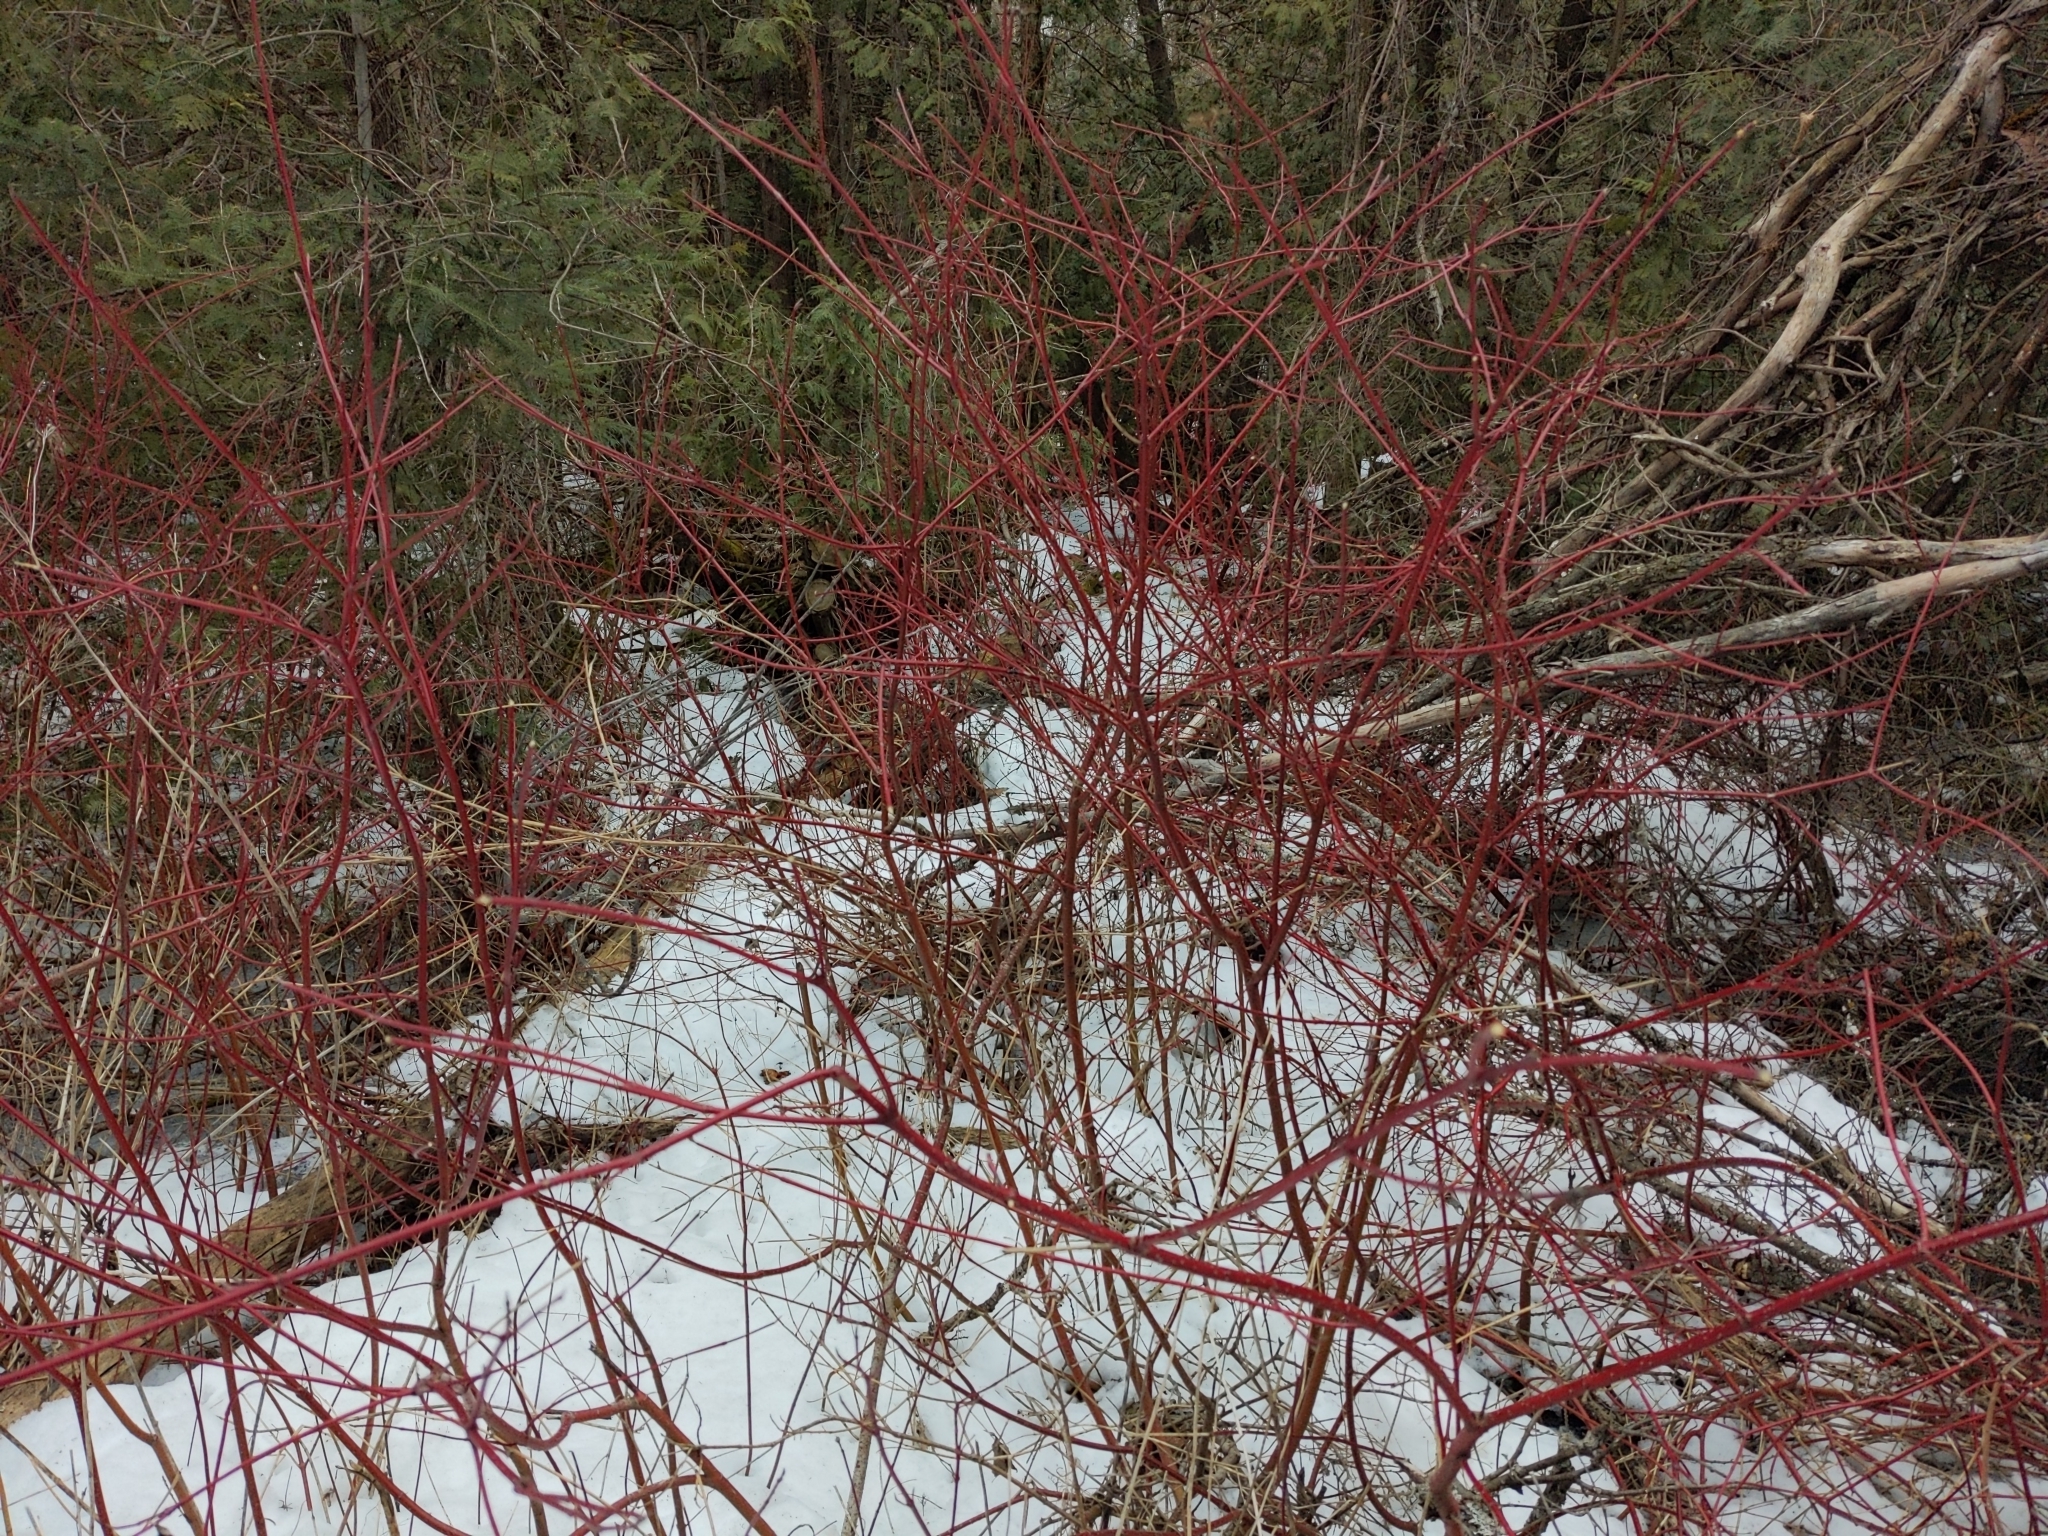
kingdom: Plantae
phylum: Tracheophyta
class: Magnoliopsida
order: Cornales
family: Cornaceae
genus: Cornus
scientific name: Cornus sericea
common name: Red-osier dogwood
